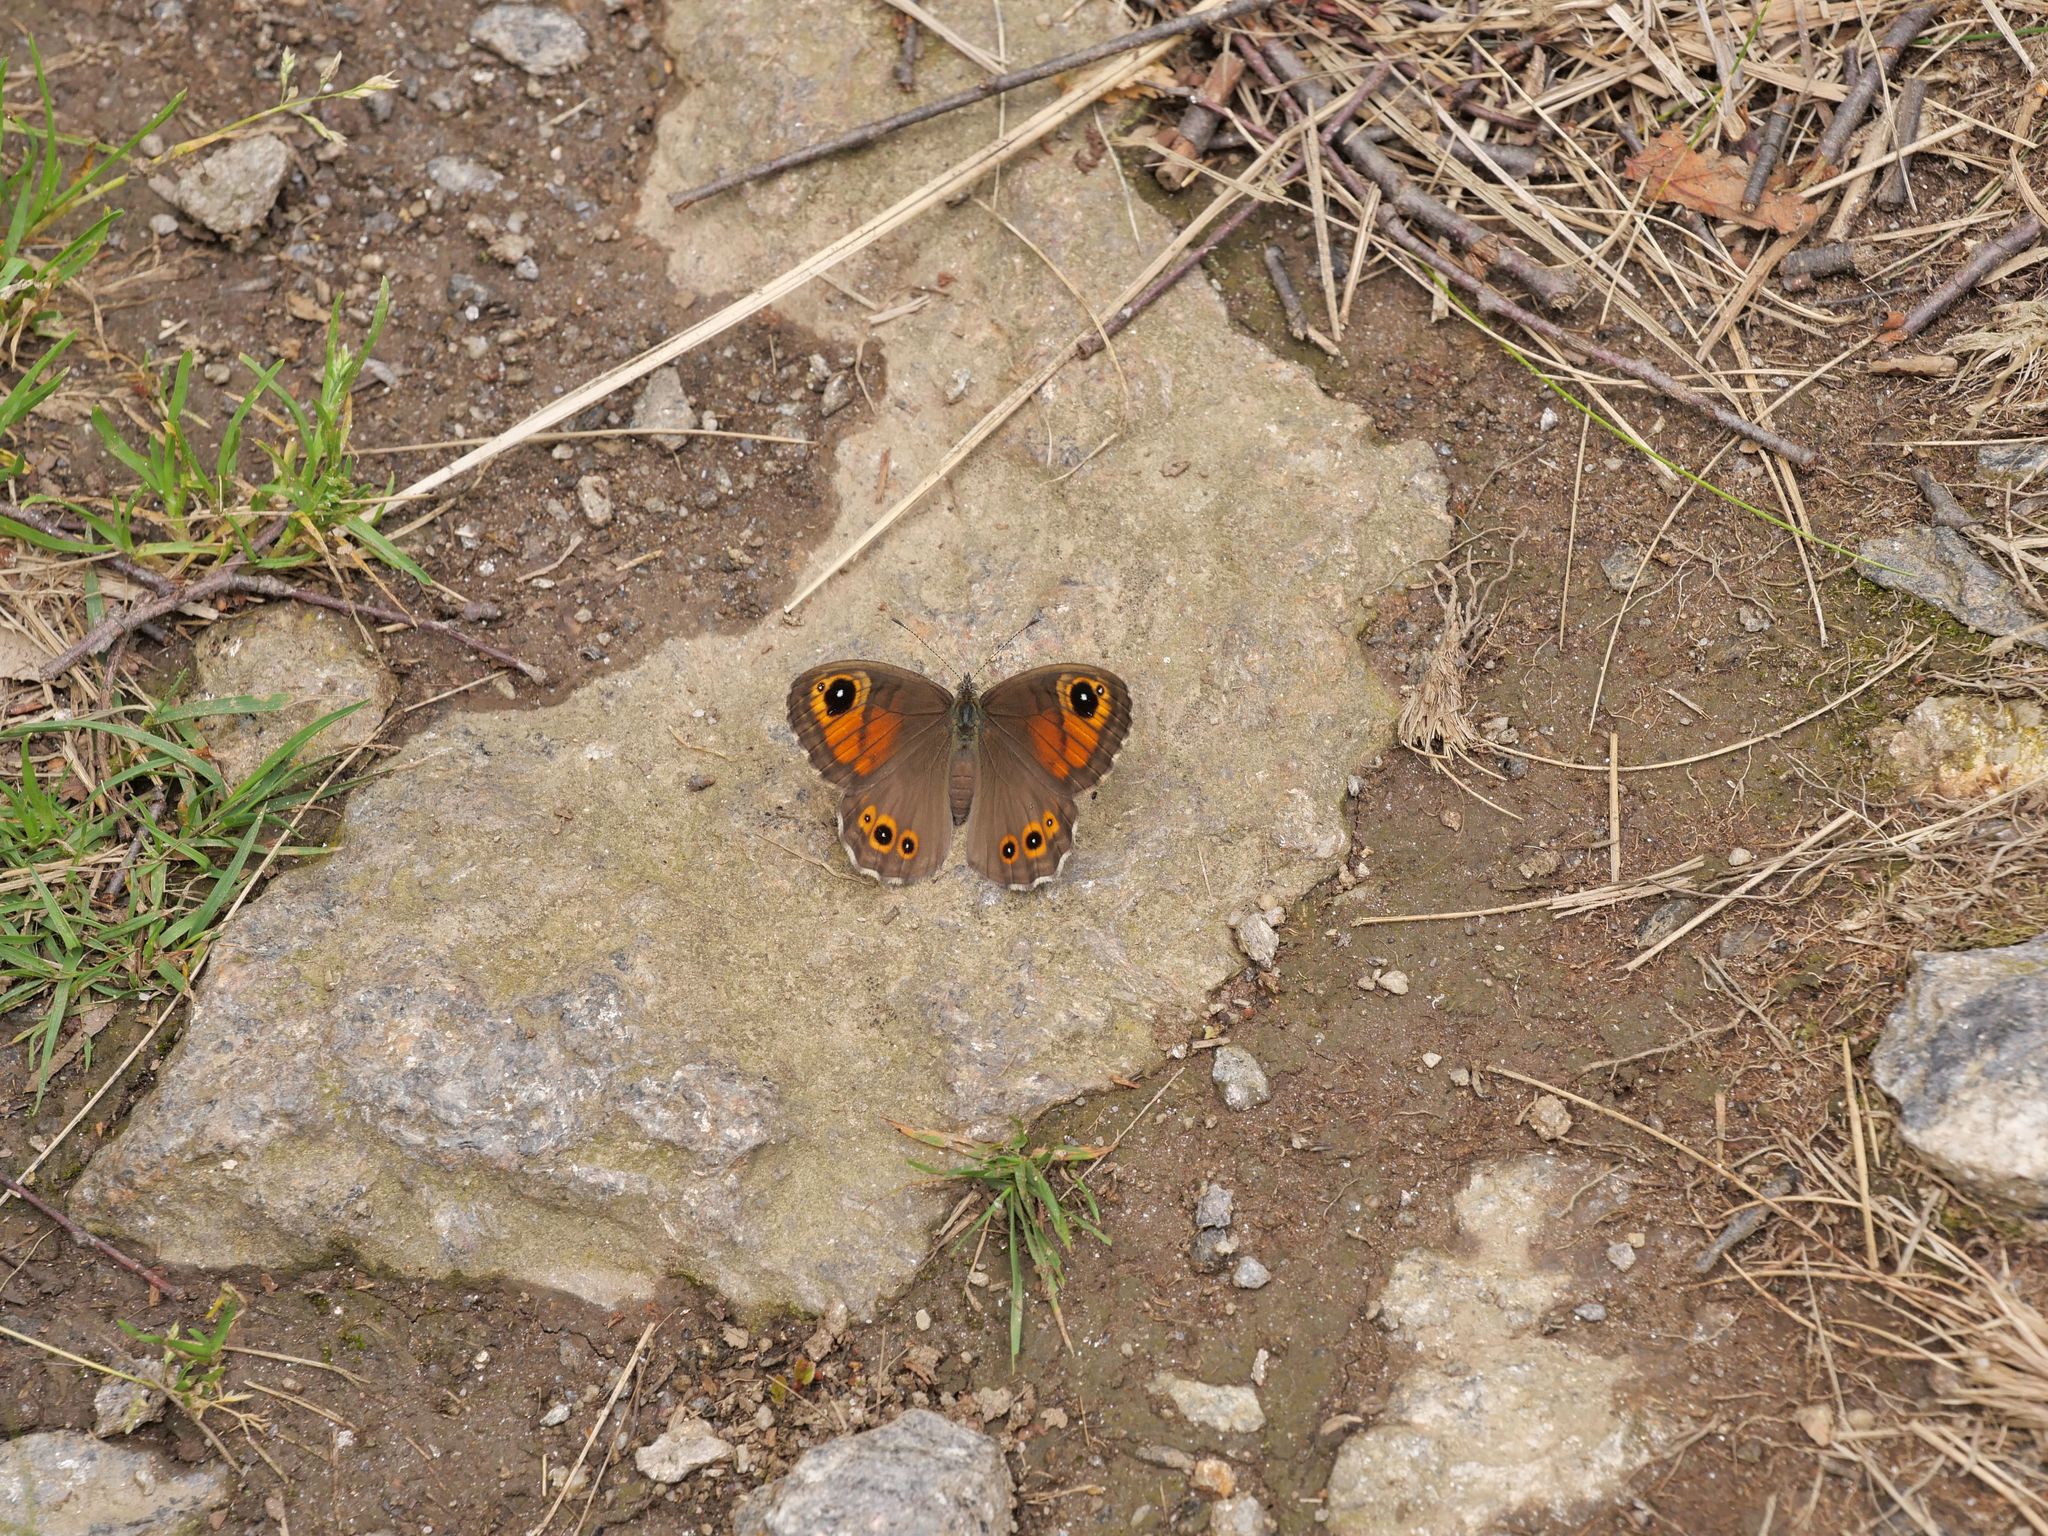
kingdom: Animalia
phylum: Arthropoda
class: Insecta
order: Lepidoptera
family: Nymphalidae
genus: Pararge
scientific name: Pararge Lasiommata maera
